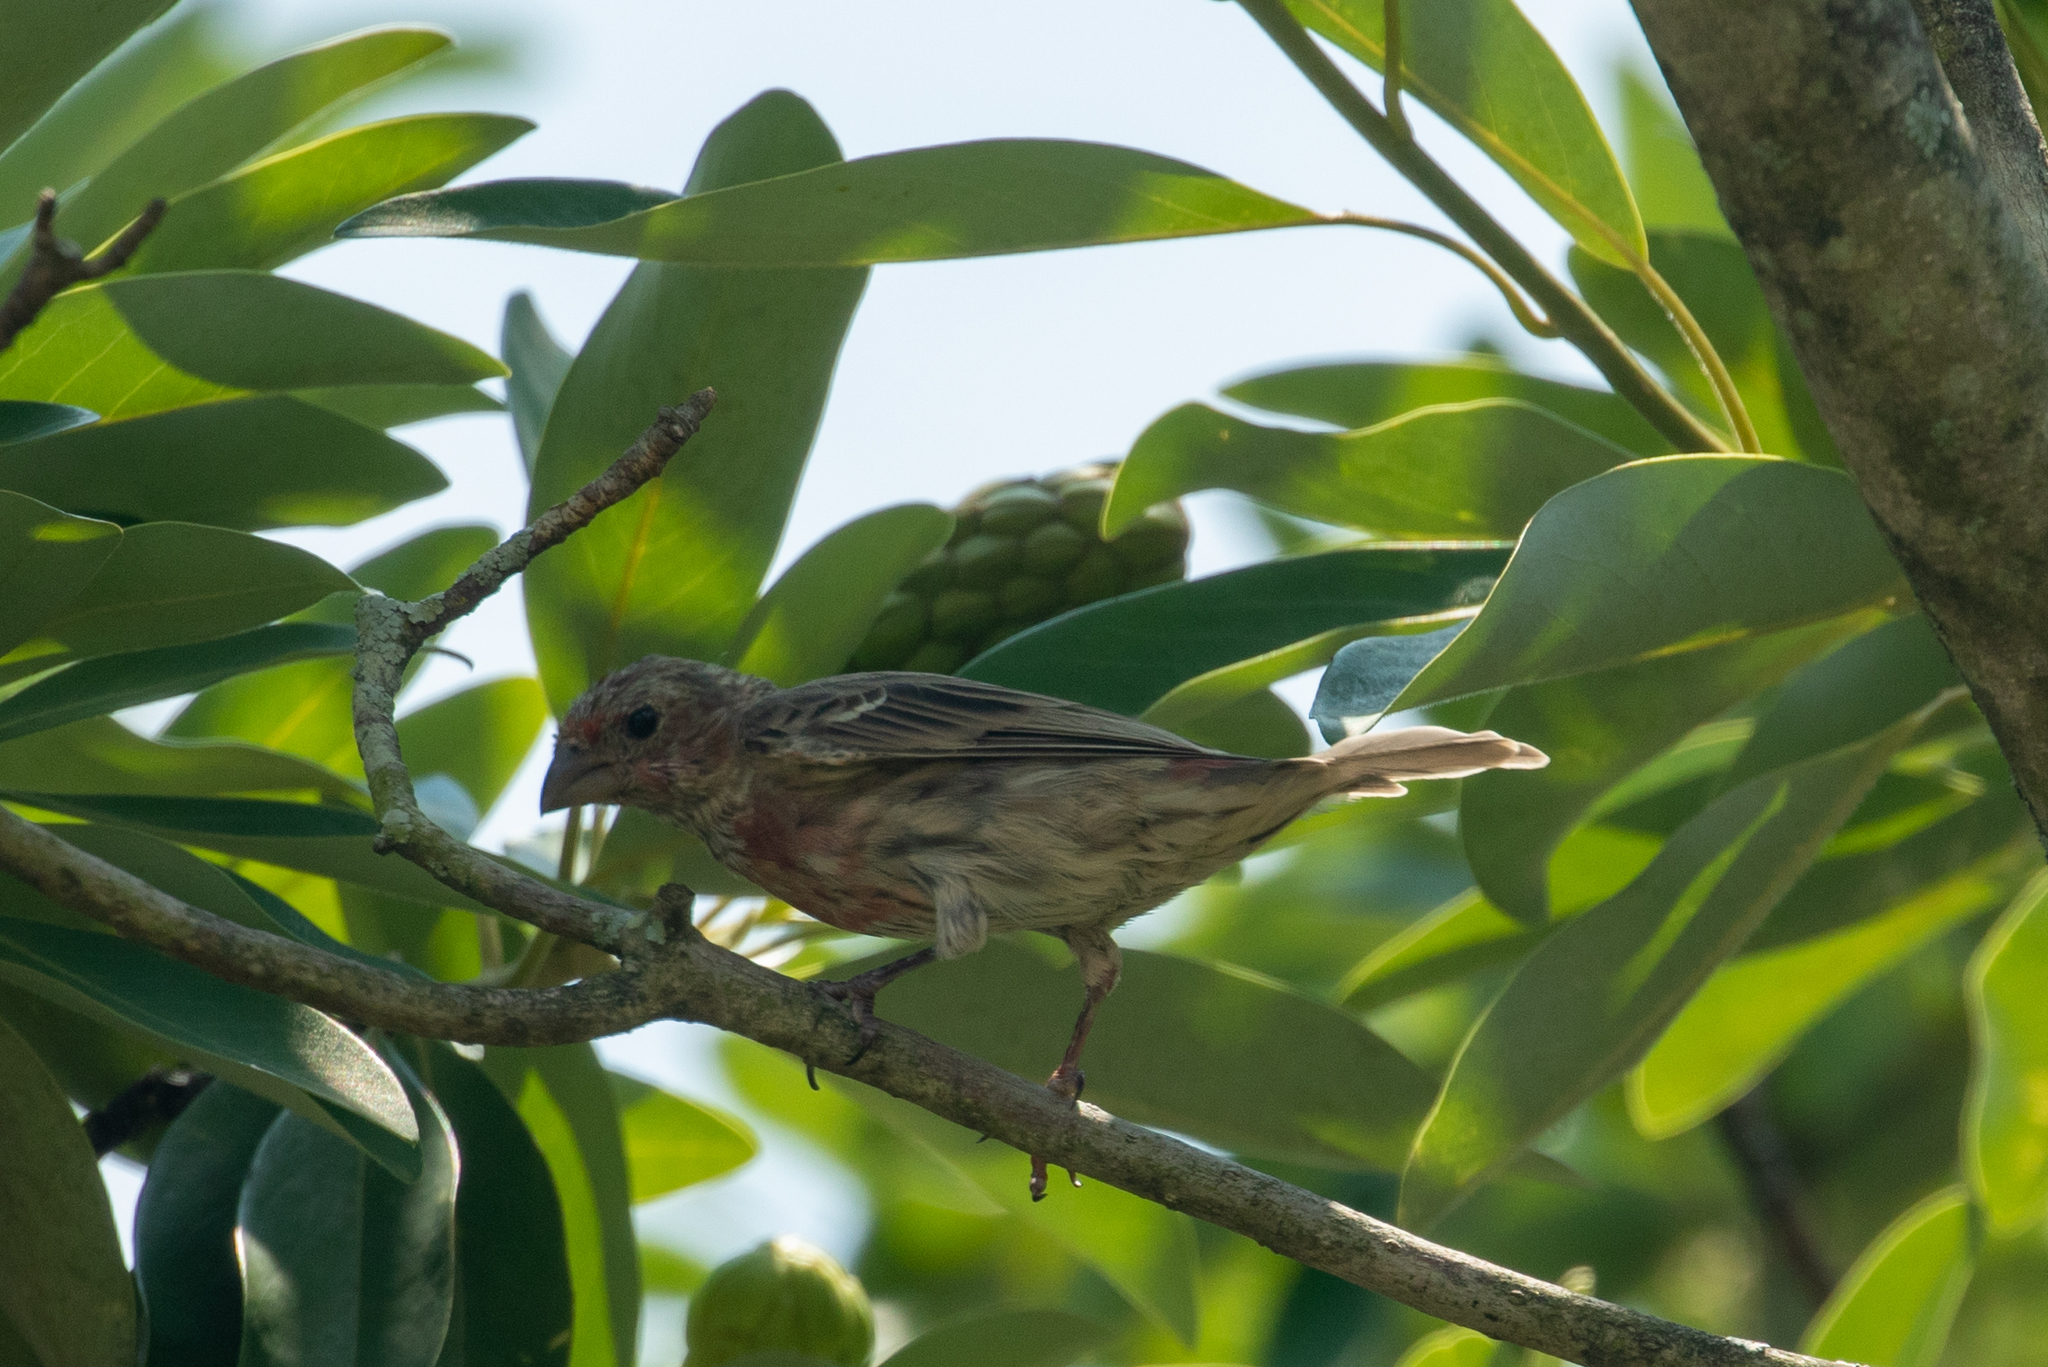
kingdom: Animalia
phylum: Chordata
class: Aves
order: Passeriformes
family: Fringillidae
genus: Haemorhous
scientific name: Haemorhous mexicanus
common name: House finch
